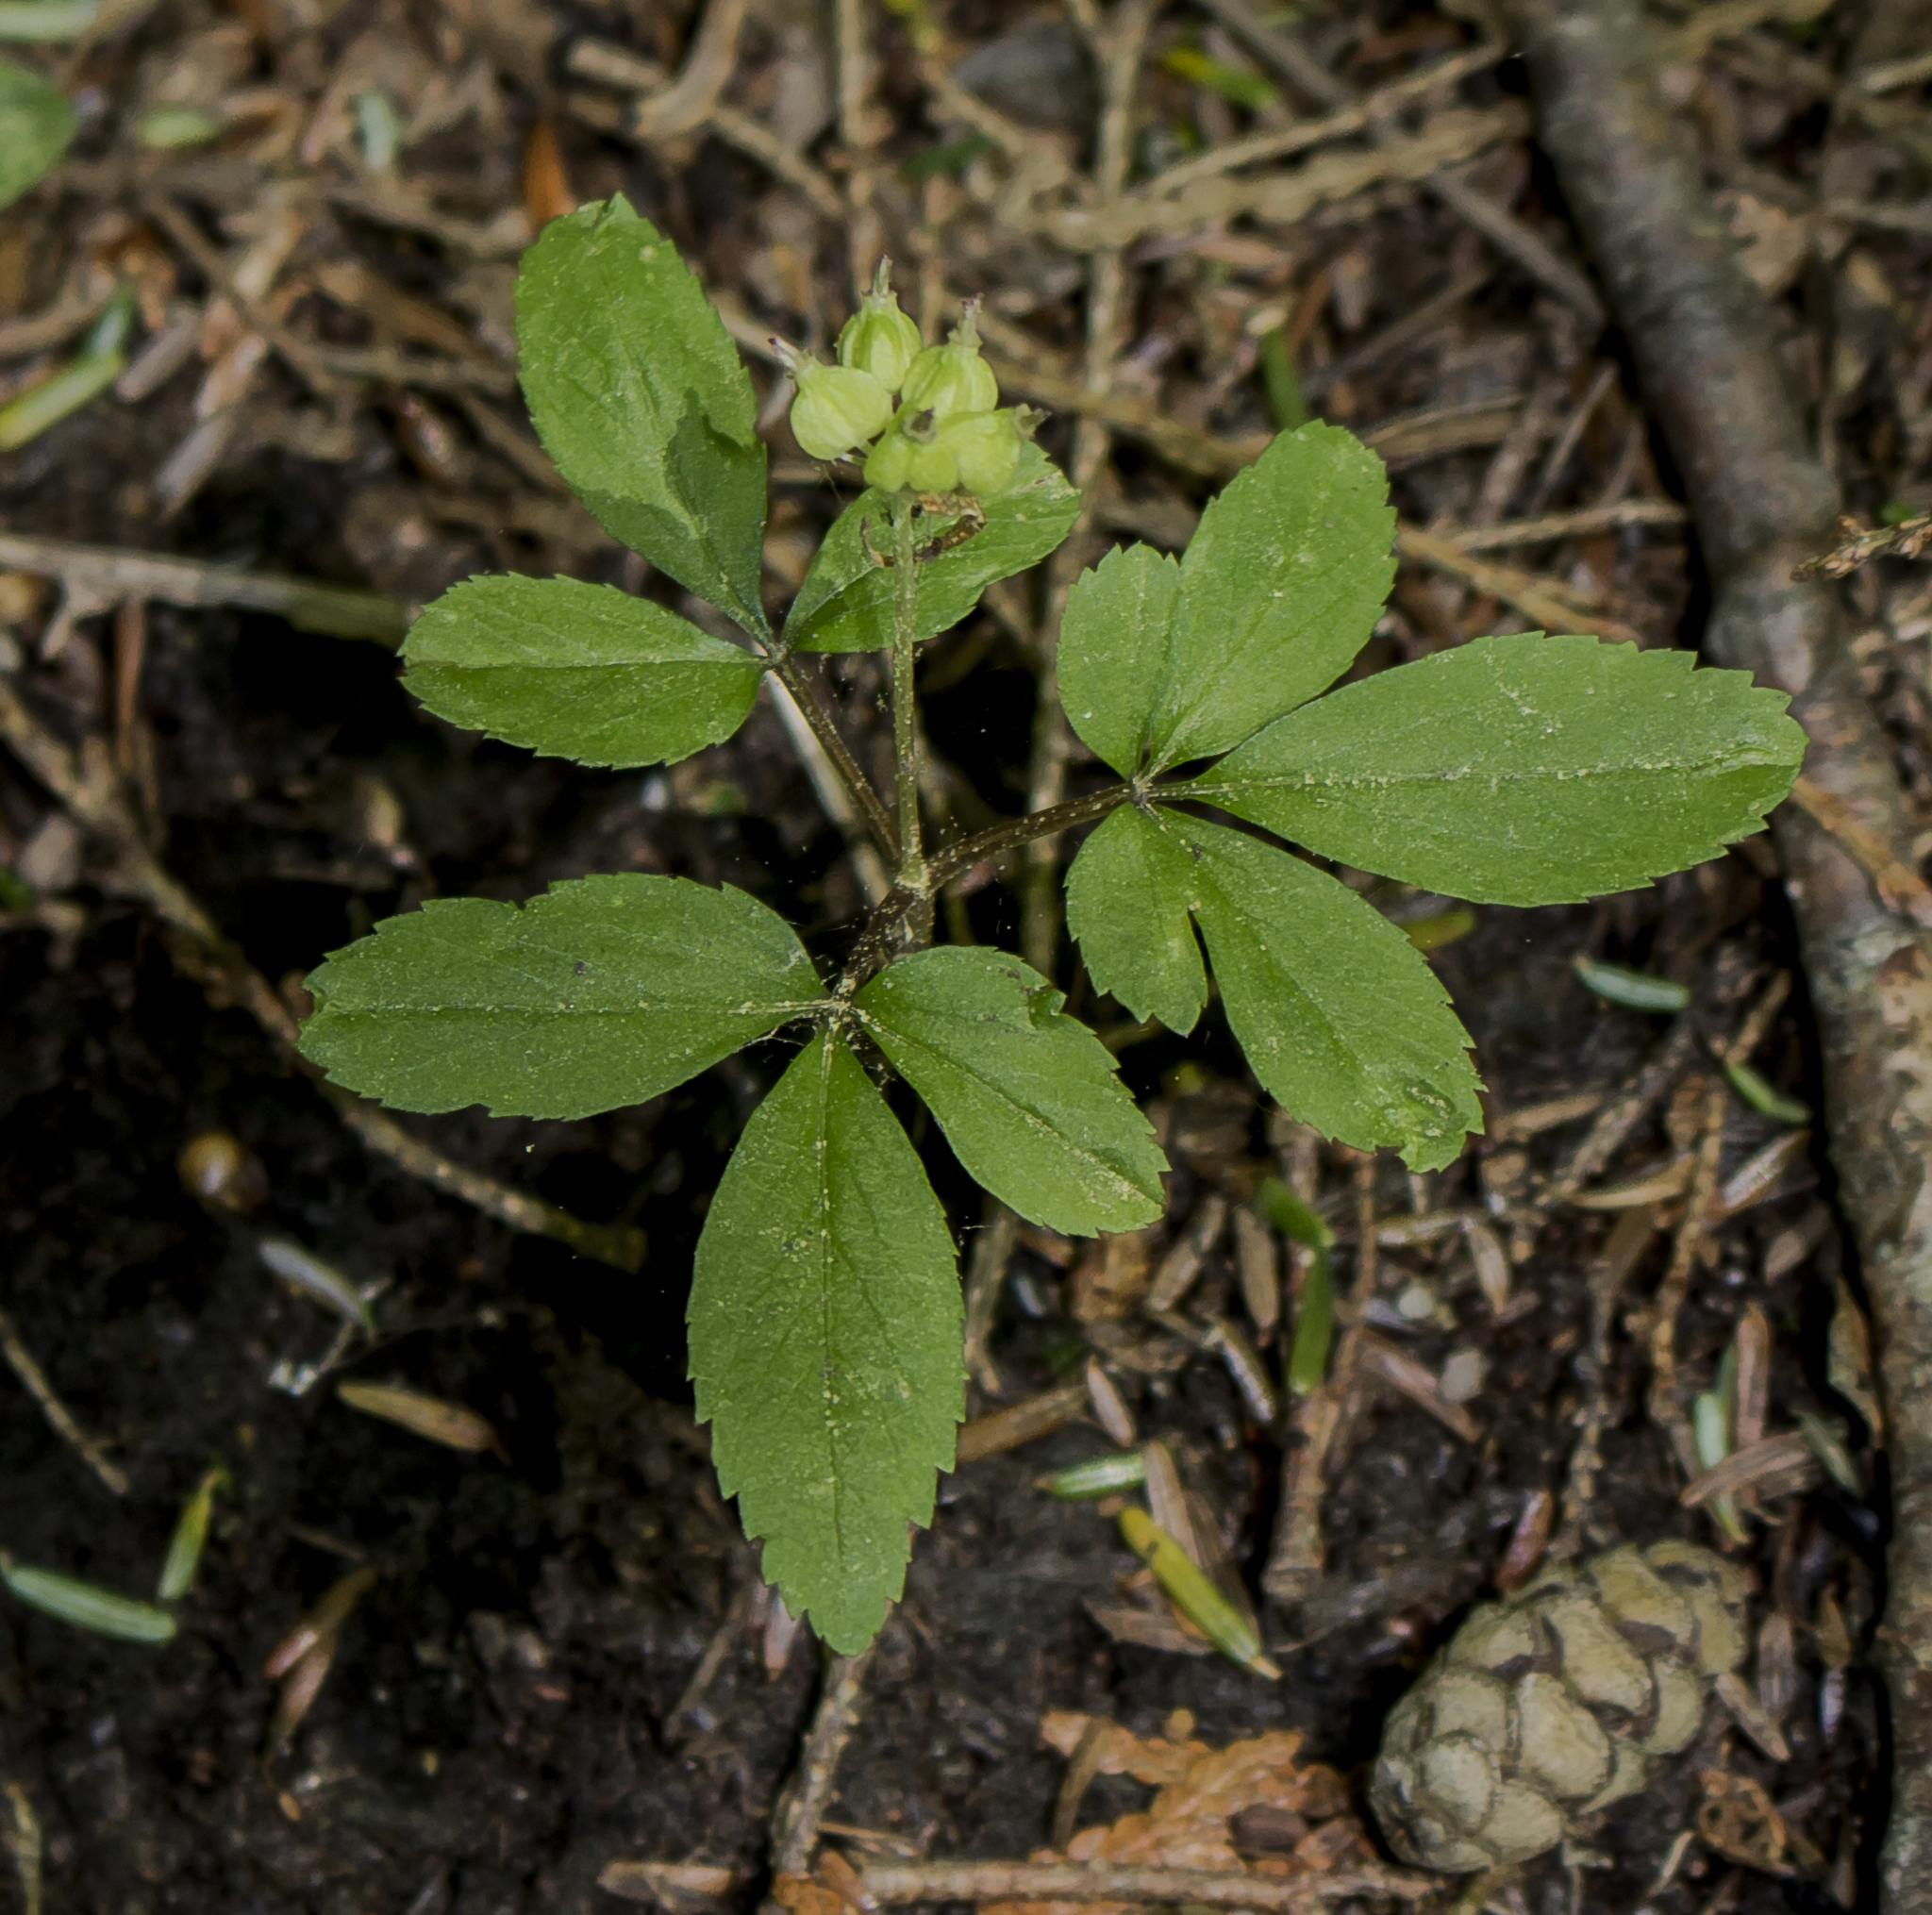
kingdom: Plantae
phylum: Tracheophyta
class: Magnoliopsida
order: Apiales
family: Araliaceae
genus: Panax
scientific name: Panax trifolius
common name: Dwarf ginseng
